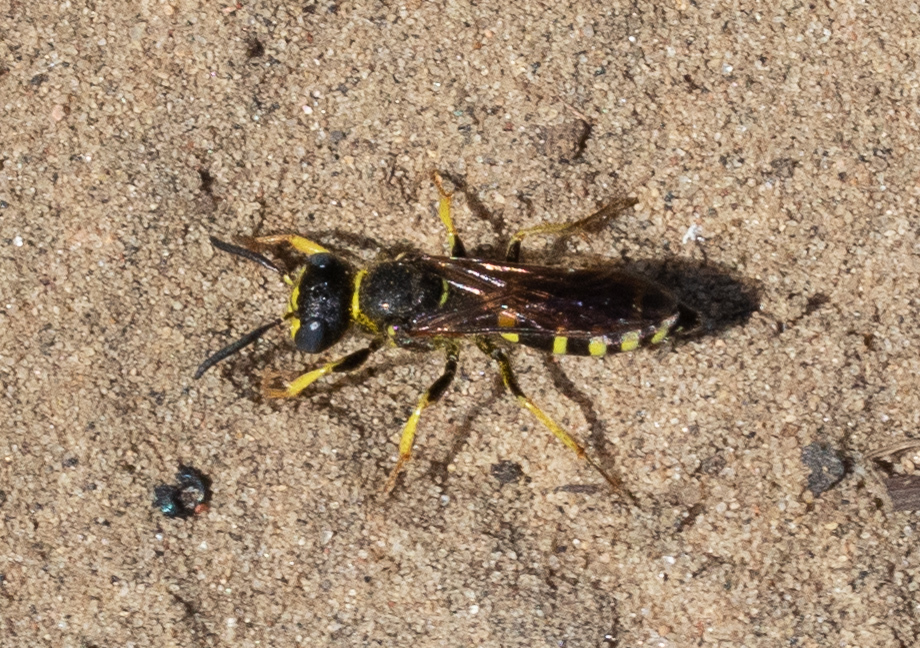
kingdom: Animalia
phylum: Arthropoda
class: Insecta
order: Hymenoptera
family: Crabronidae
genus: Philanthus
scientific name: Philanthus solivagus
